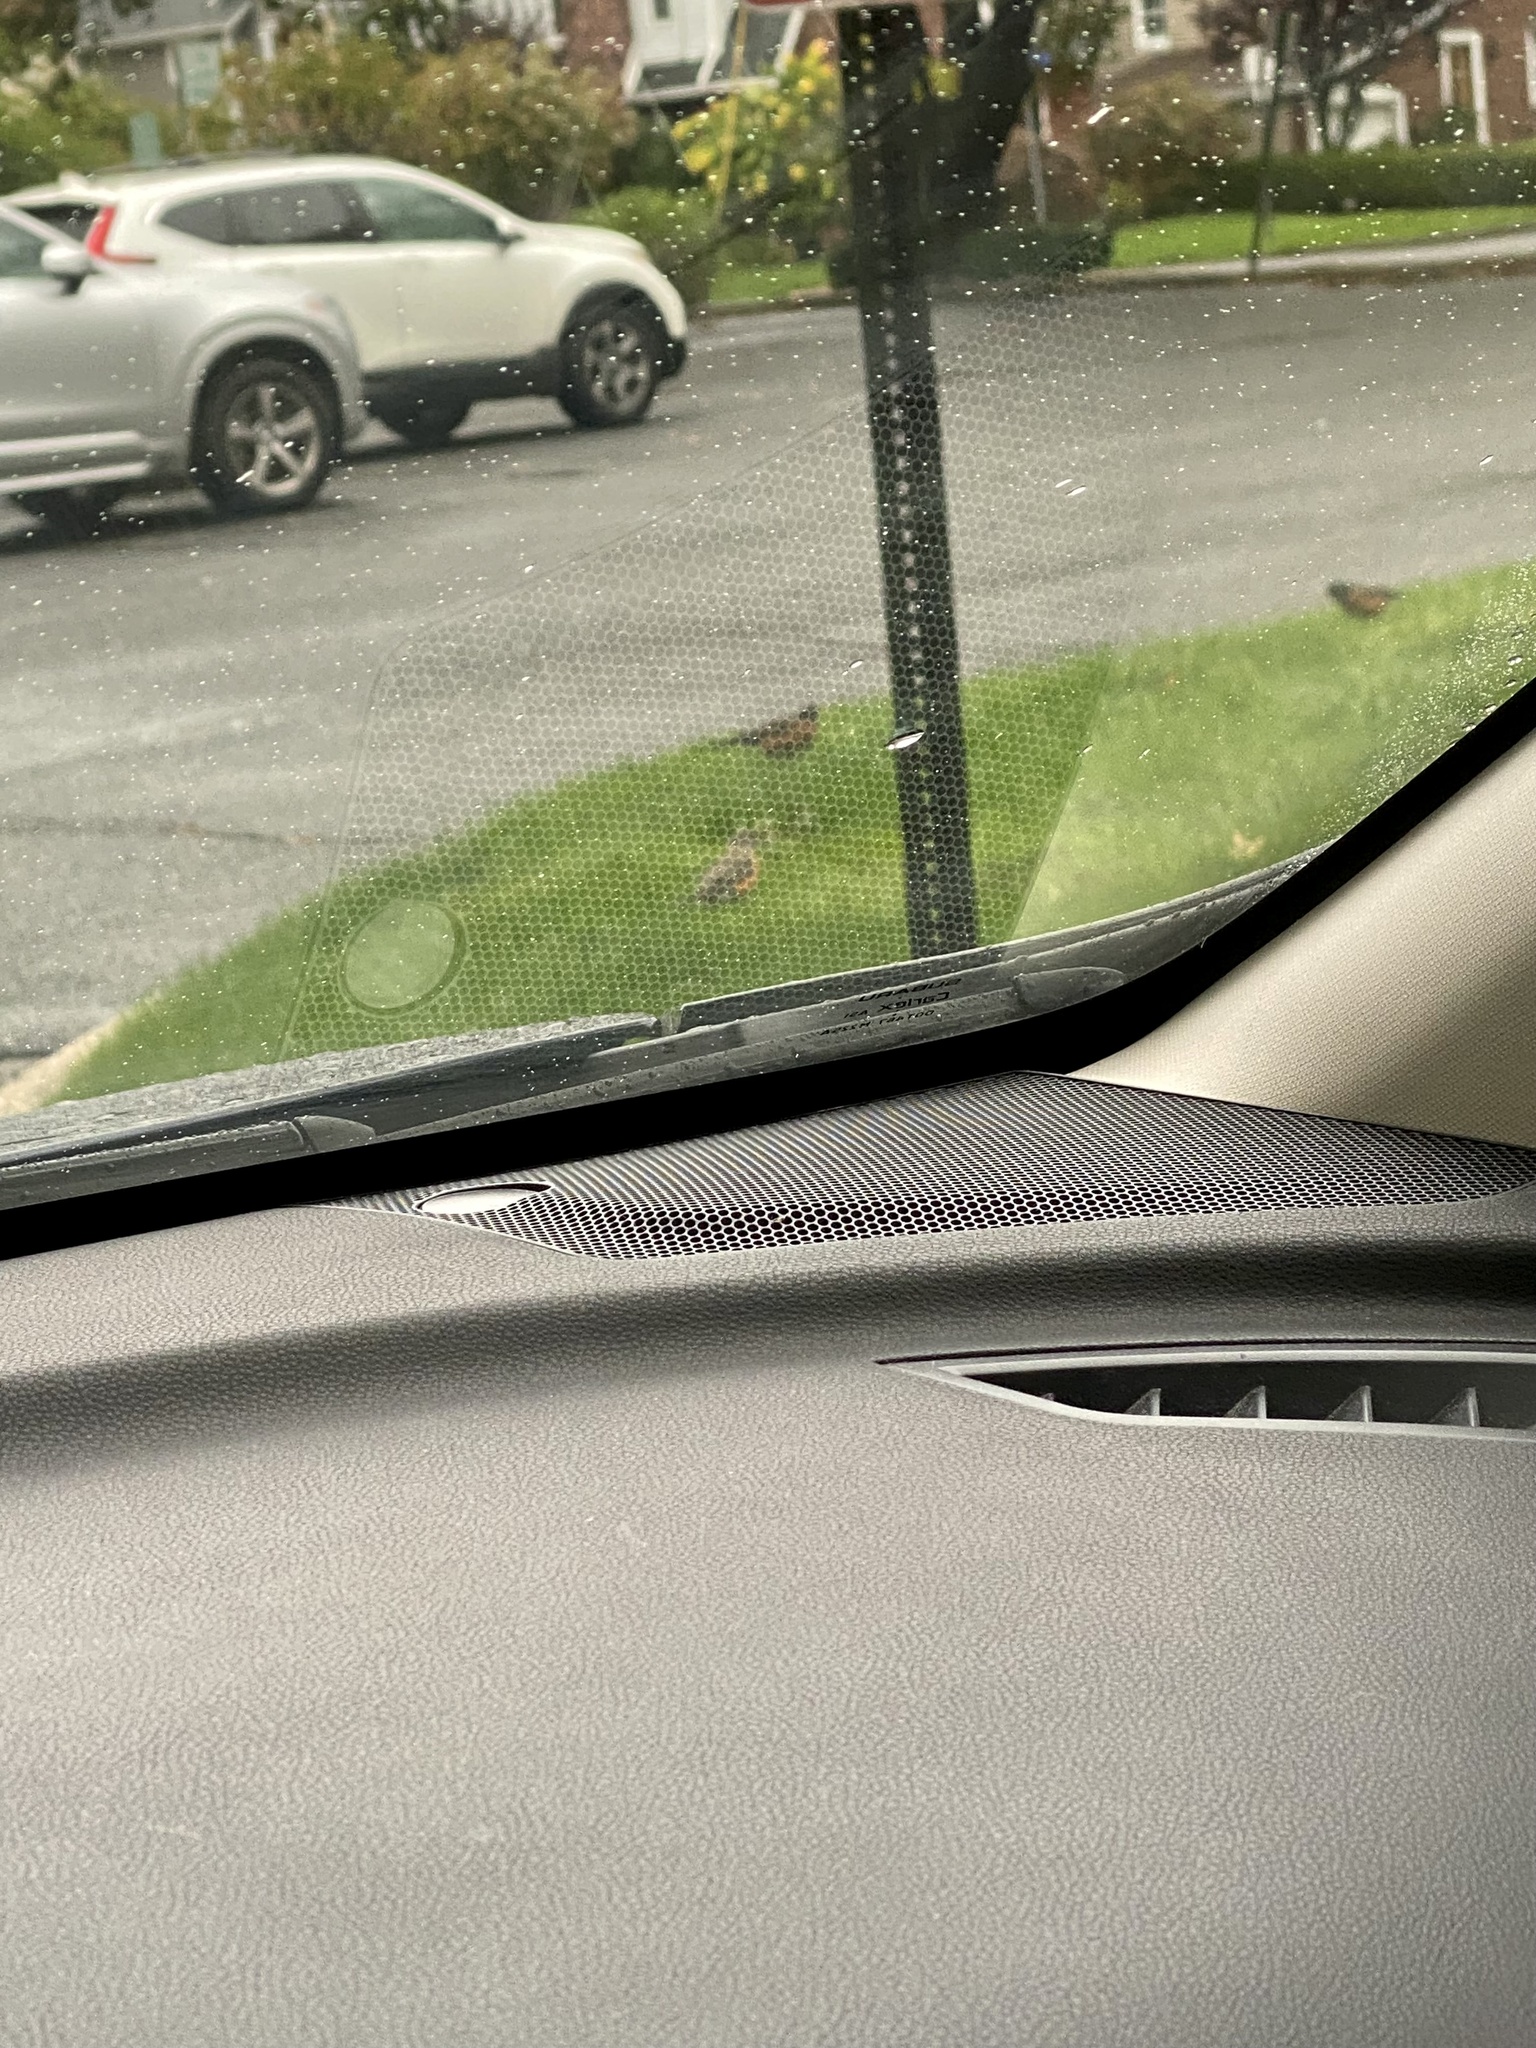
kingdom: Animalia
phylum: Chordata
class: Aves
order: Passeriformes
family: Turdidae
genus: Turdus
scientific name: Turdus migratorius
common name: American robin
